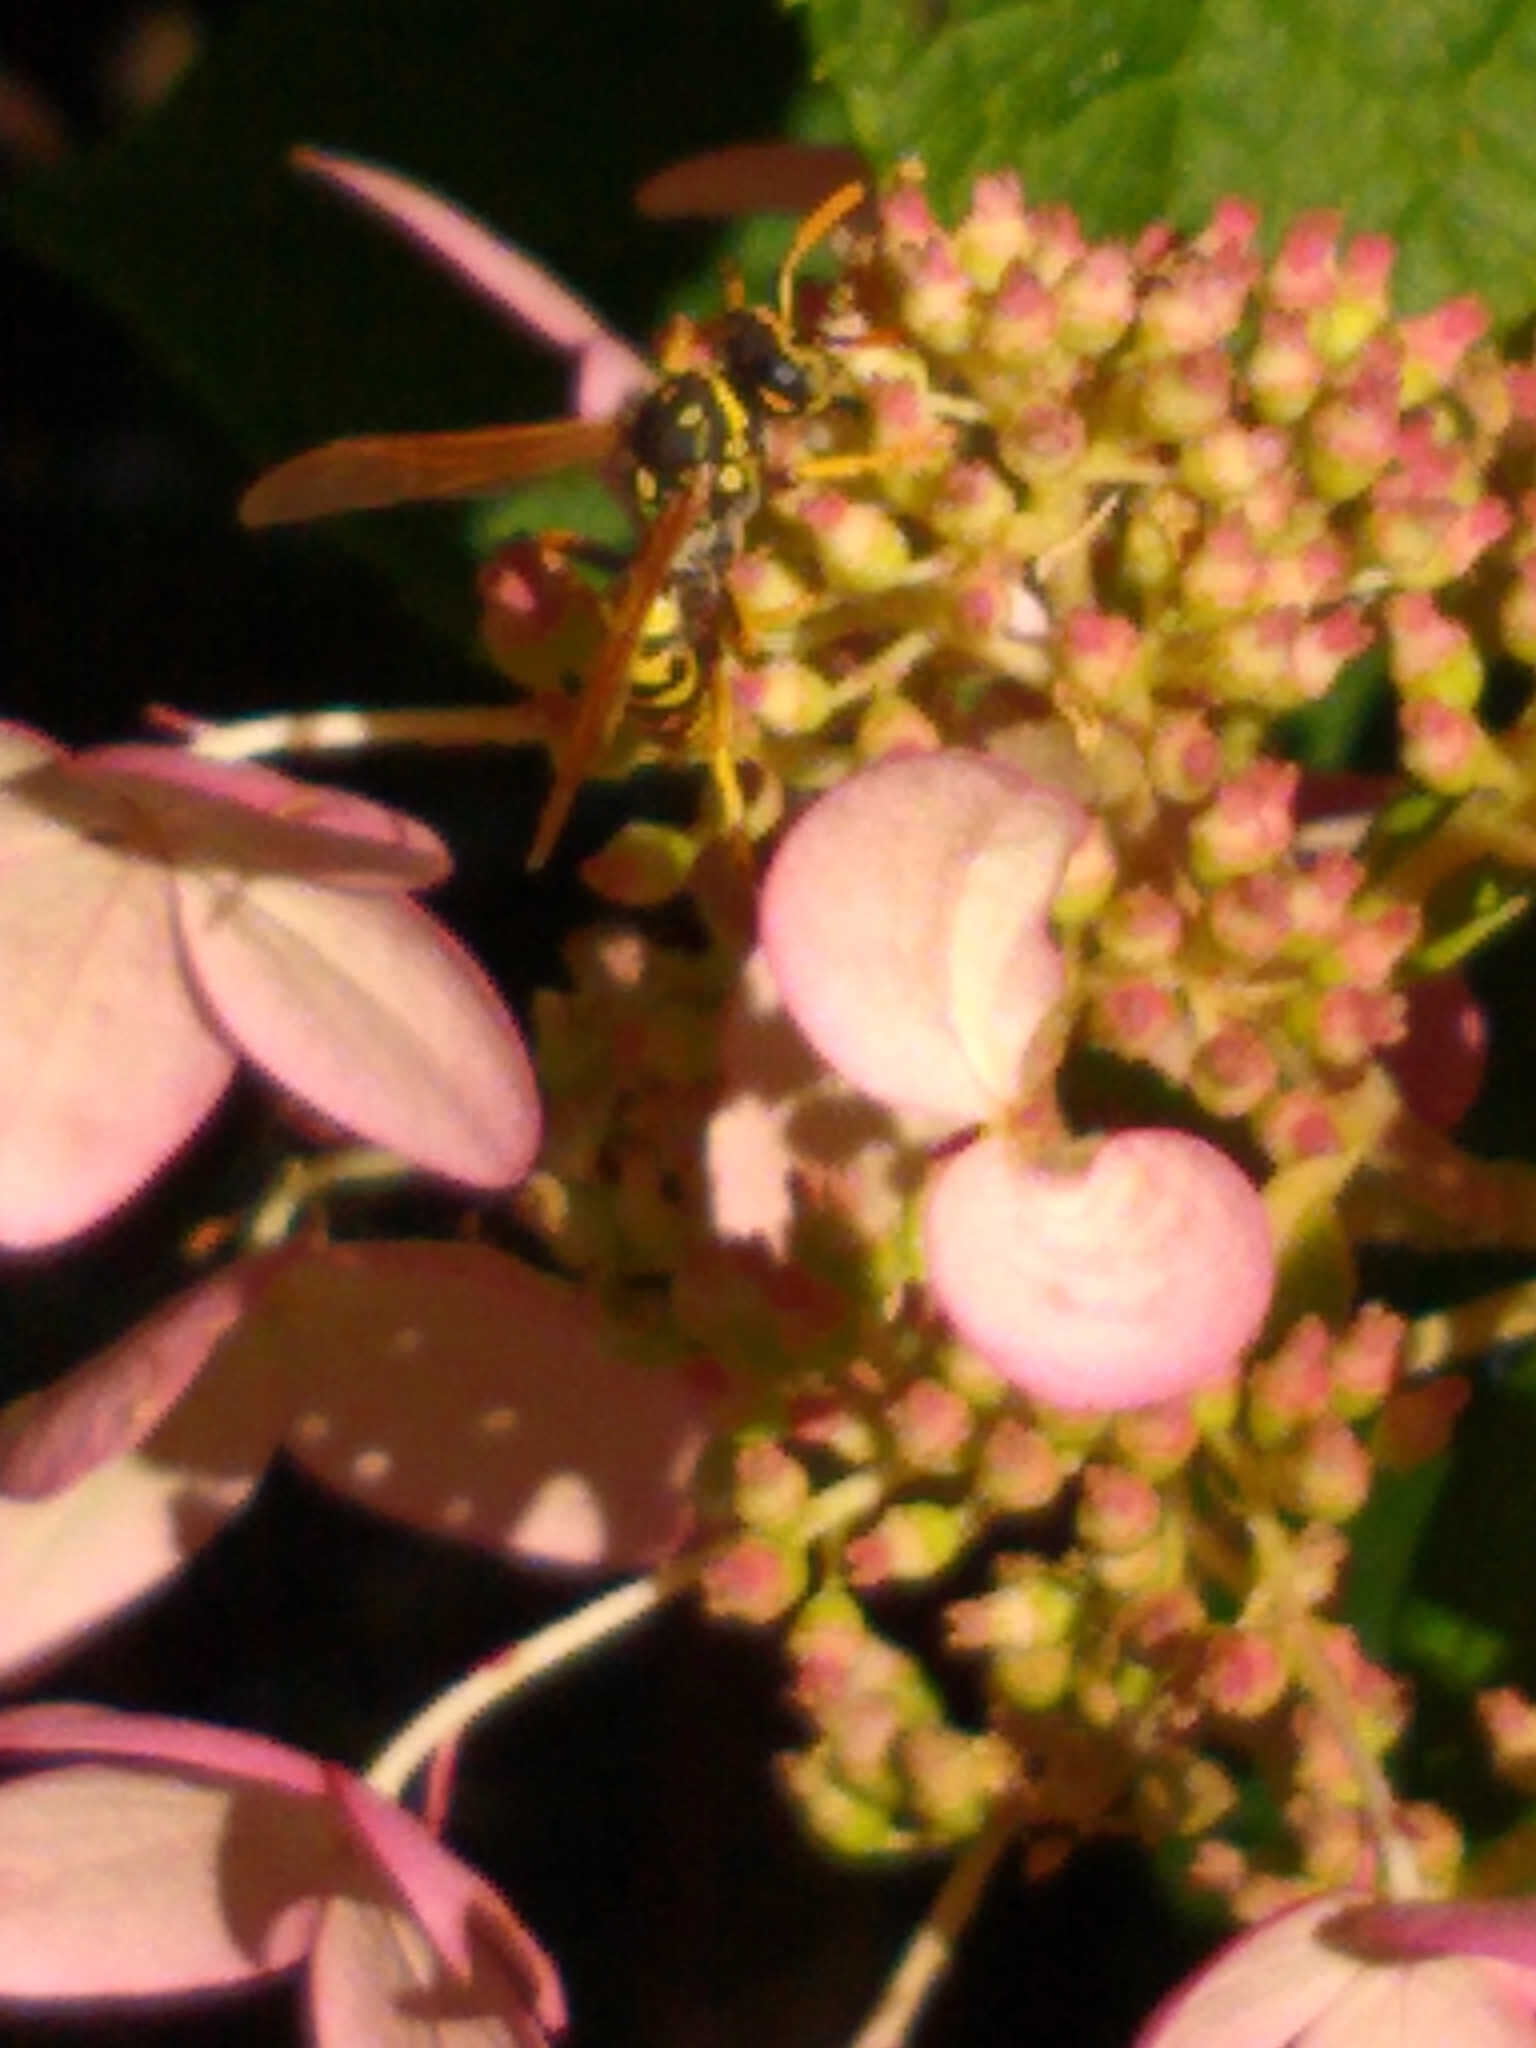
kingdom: Animalia
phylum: Arthropoda
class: Insecta
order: Hymenoptera
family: Eumenidae
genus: Polistes
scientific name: Polistes dominula
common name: Paper wasp
